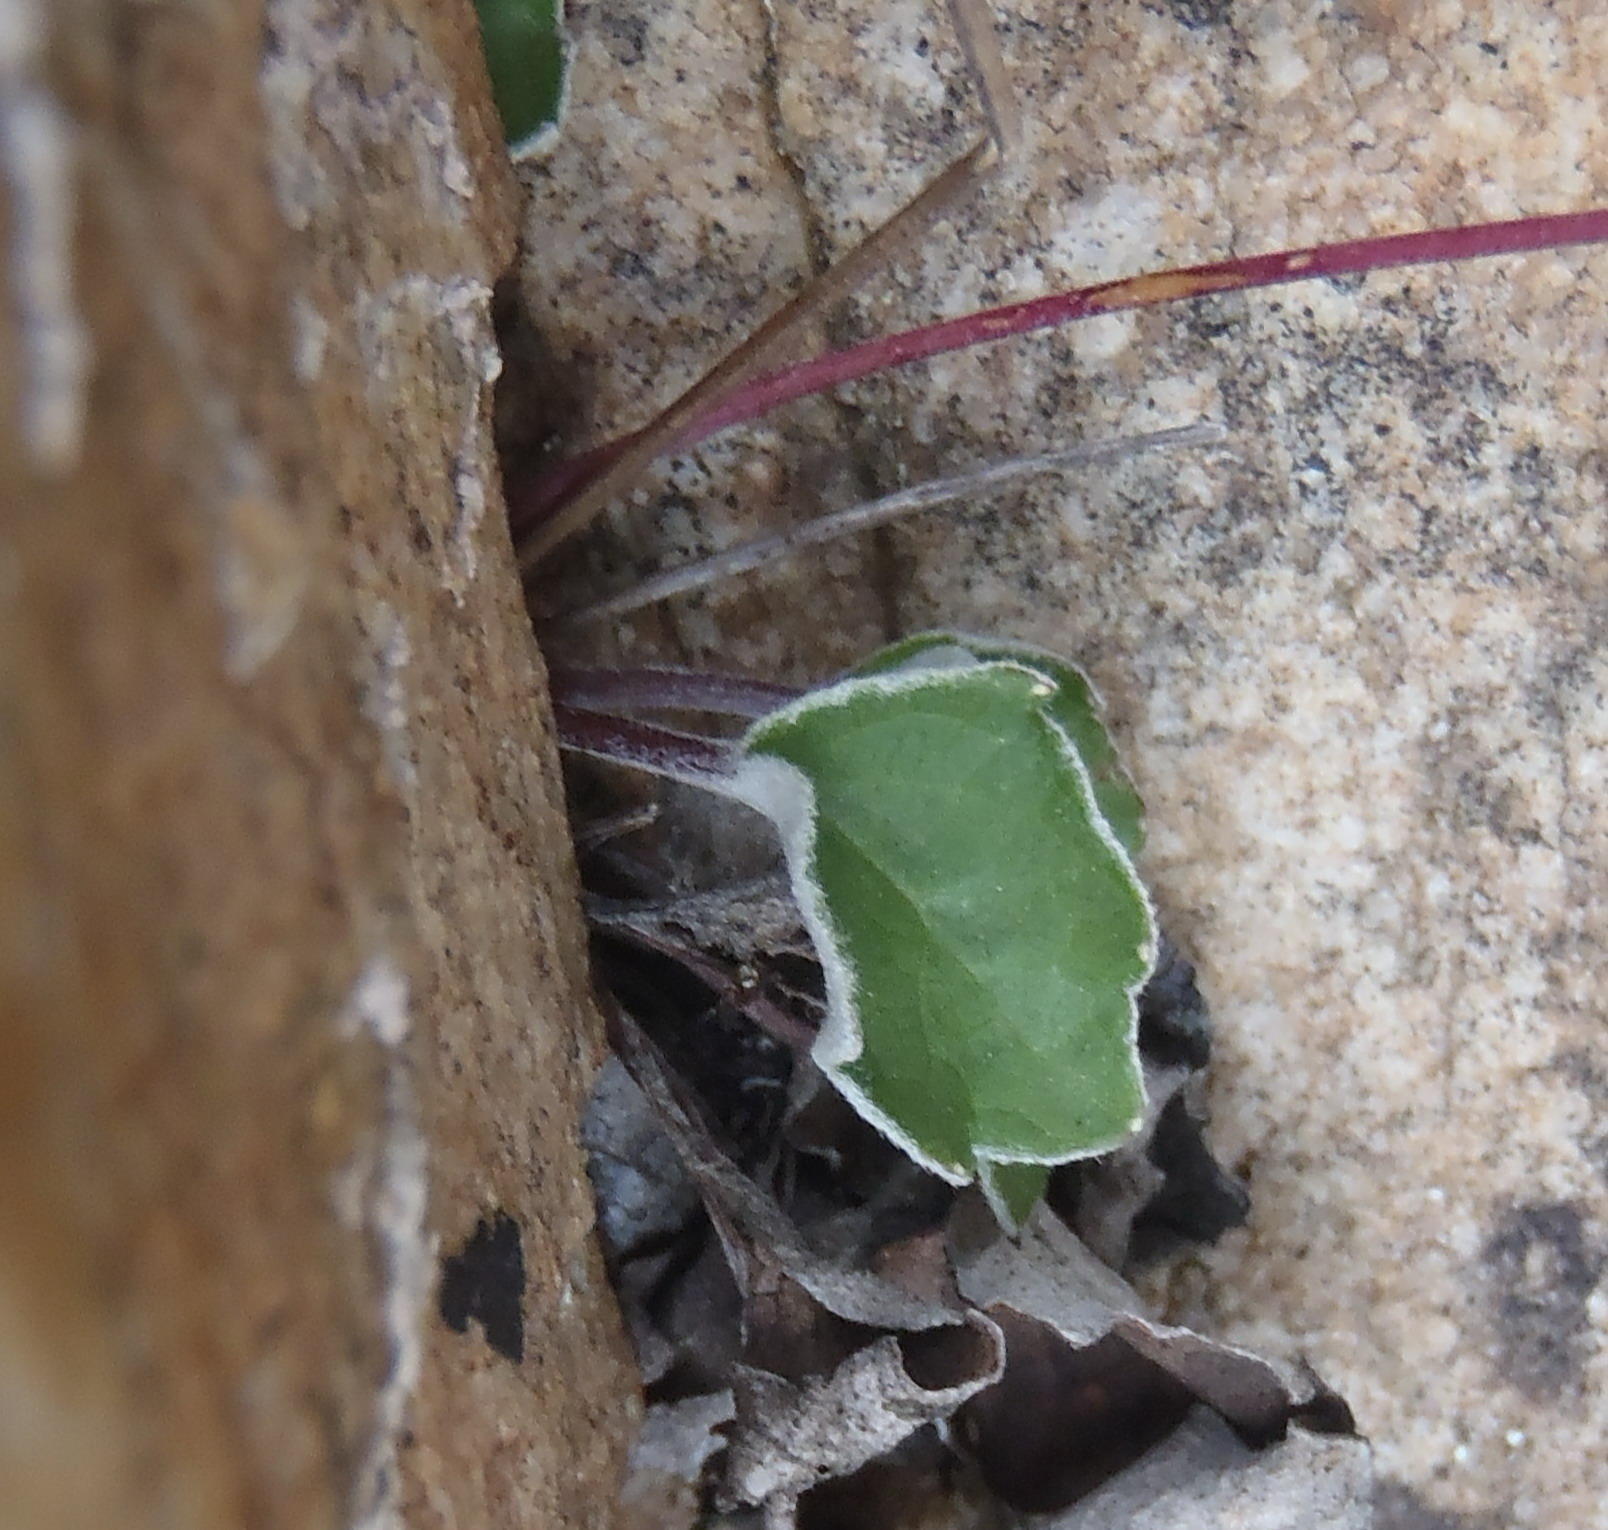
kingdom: Plantae
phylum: Tracheophyta
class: Magnoliopsida
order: Apiales
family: Apiaceae
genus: Hermas
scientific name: Hermas capitata
